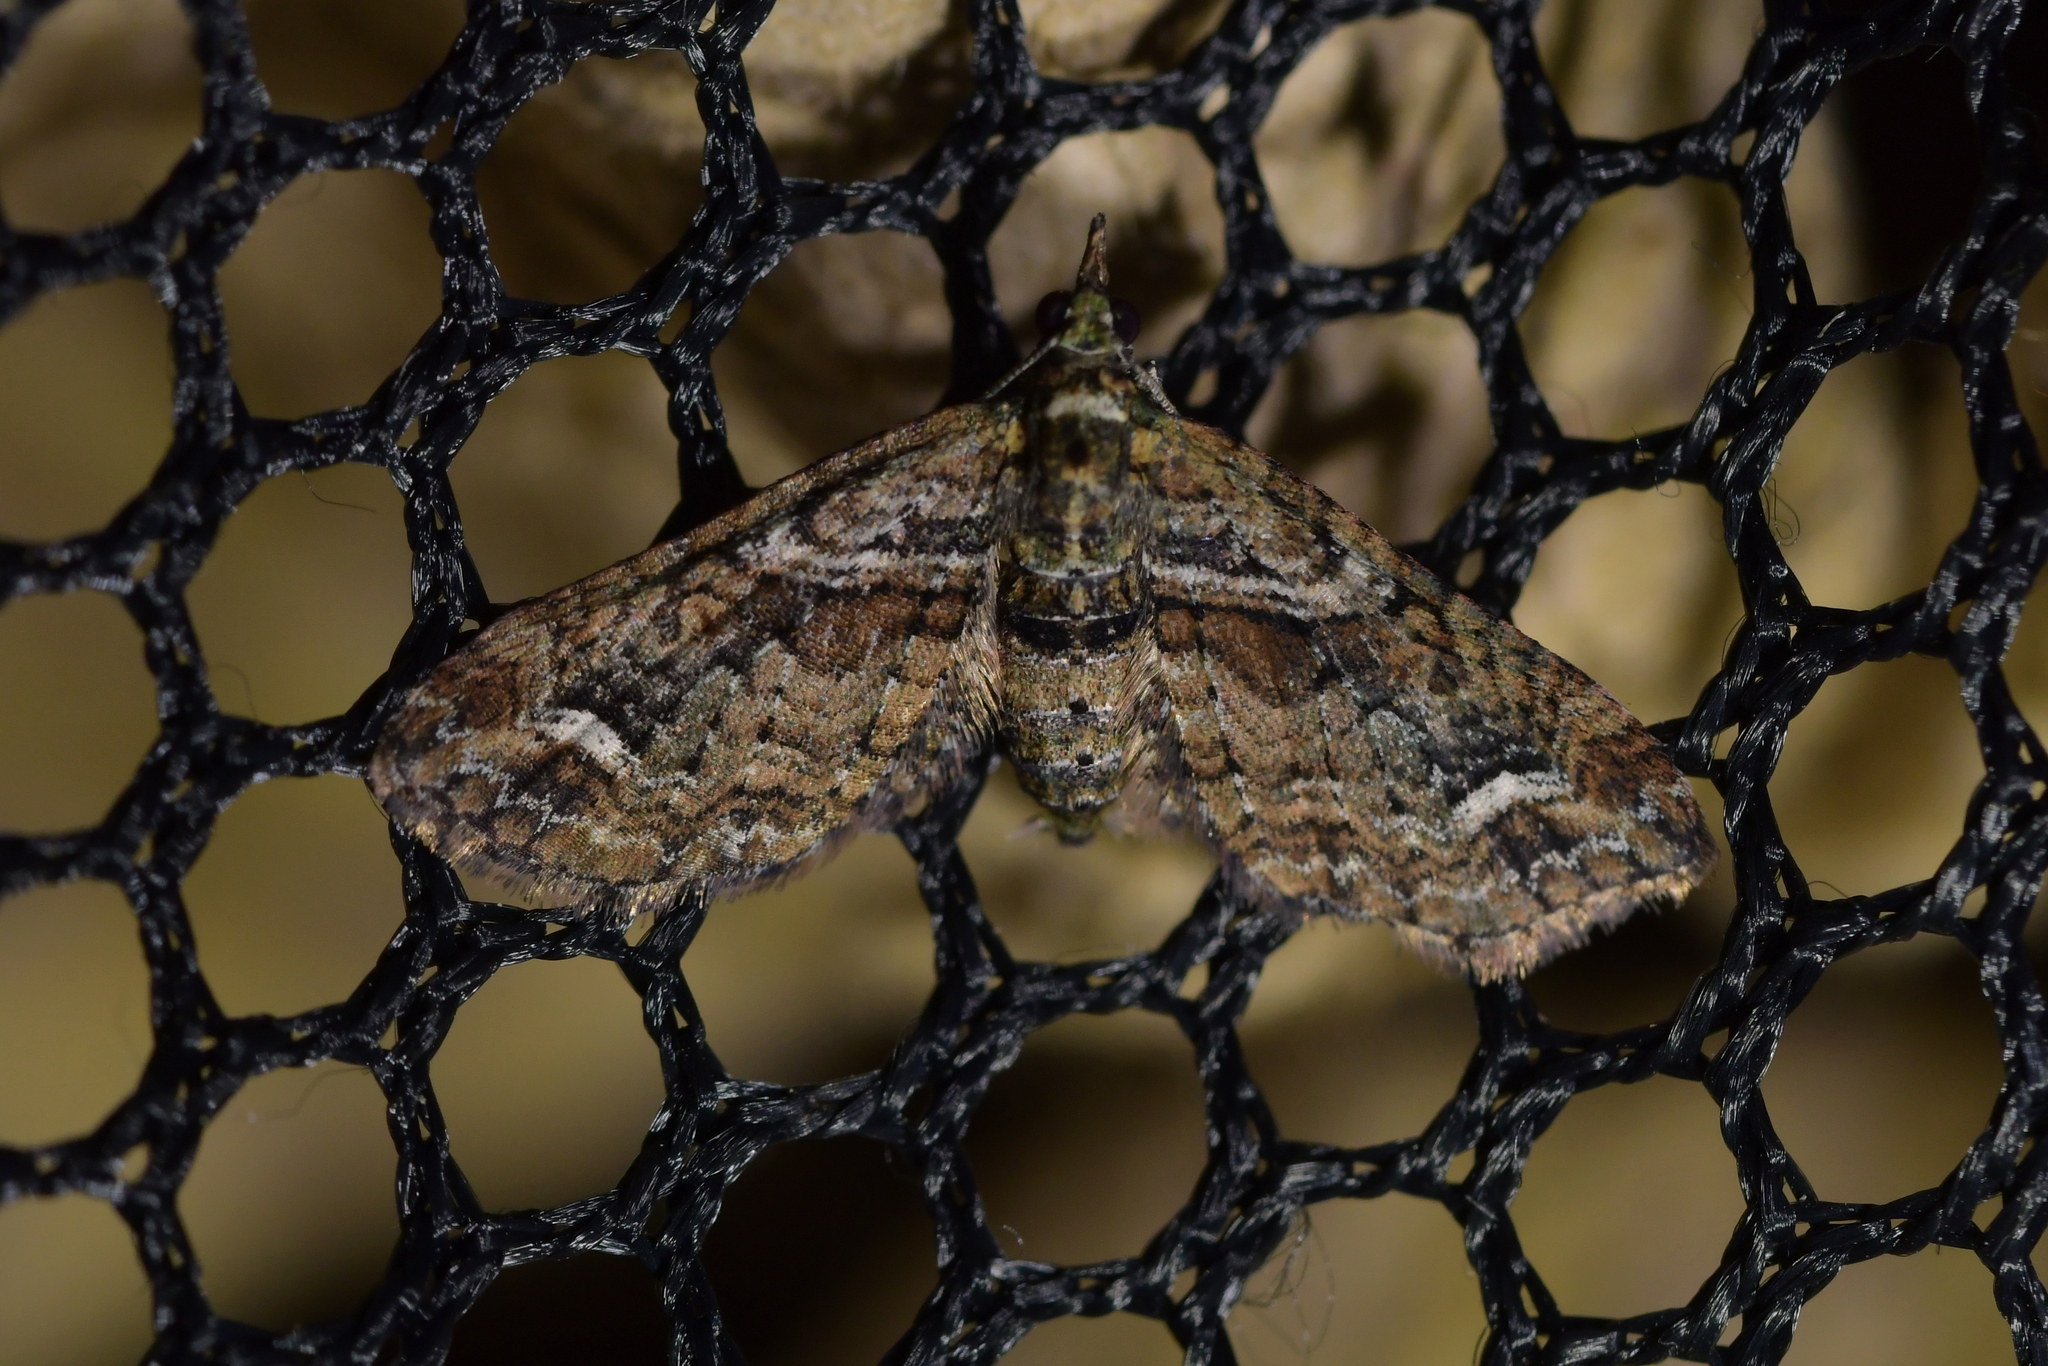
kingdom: Animalia
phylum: Arthropoda
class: Insecta
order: Lepidoptera
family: Geometridae
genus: Idaea
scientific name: Idaea mutanda
